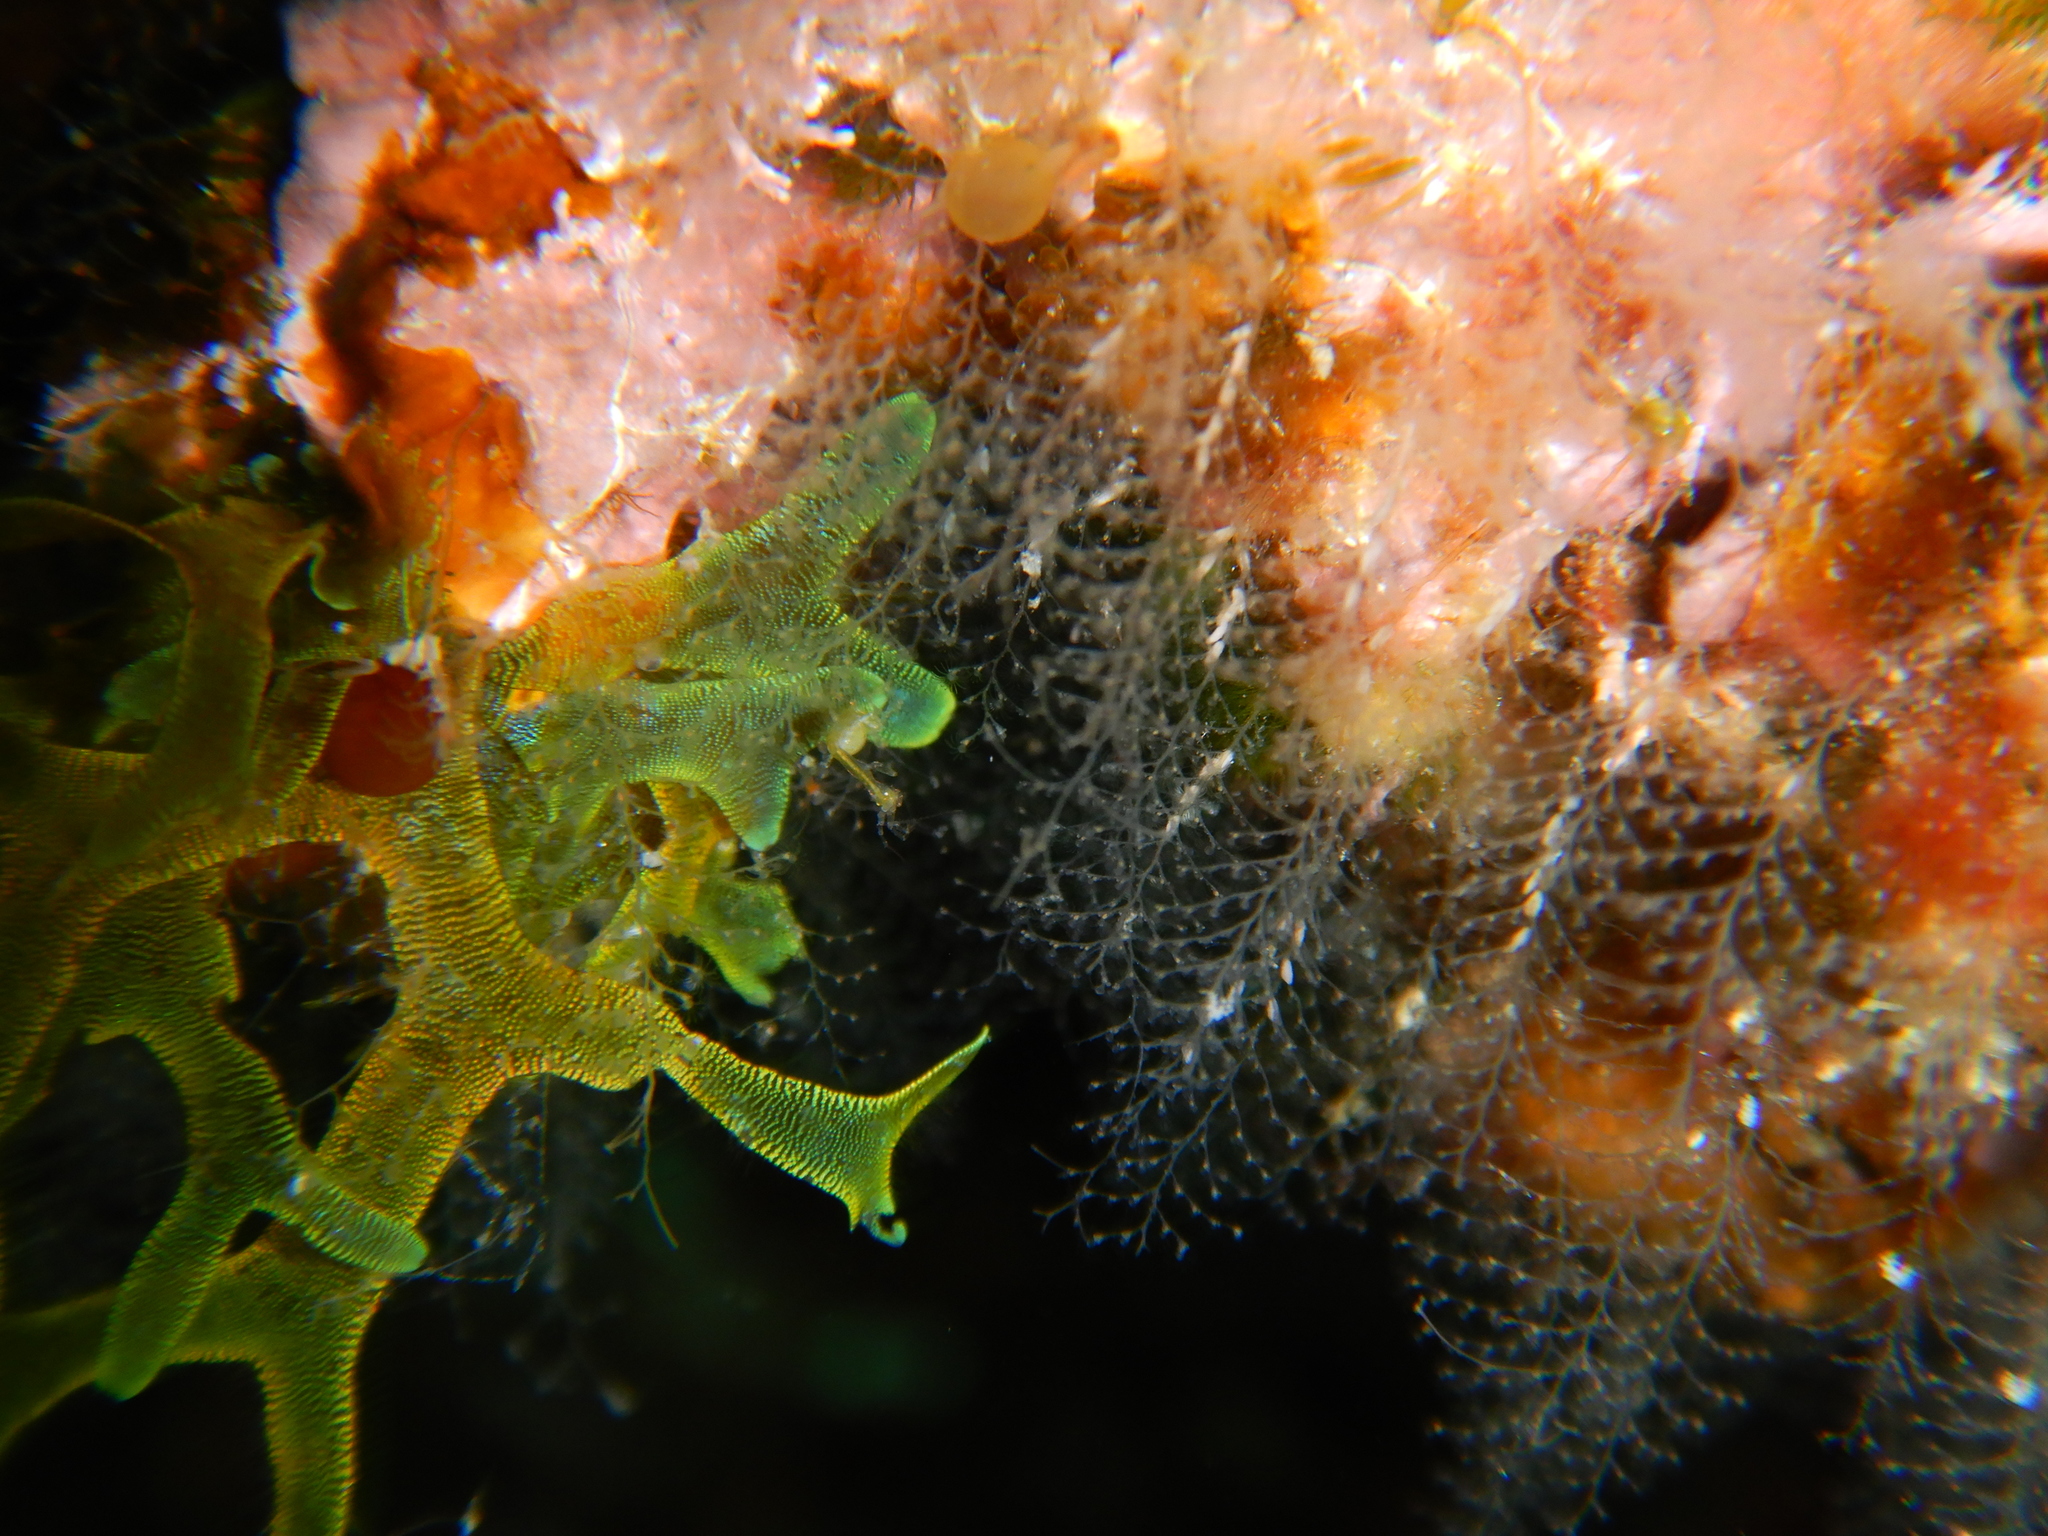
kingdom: Chromista
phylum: Ochrophyta
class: Phaeophyceae
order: Dictyotales
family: Dictyotaceae
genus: Dictyota
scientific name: Dictyota dichotoma
